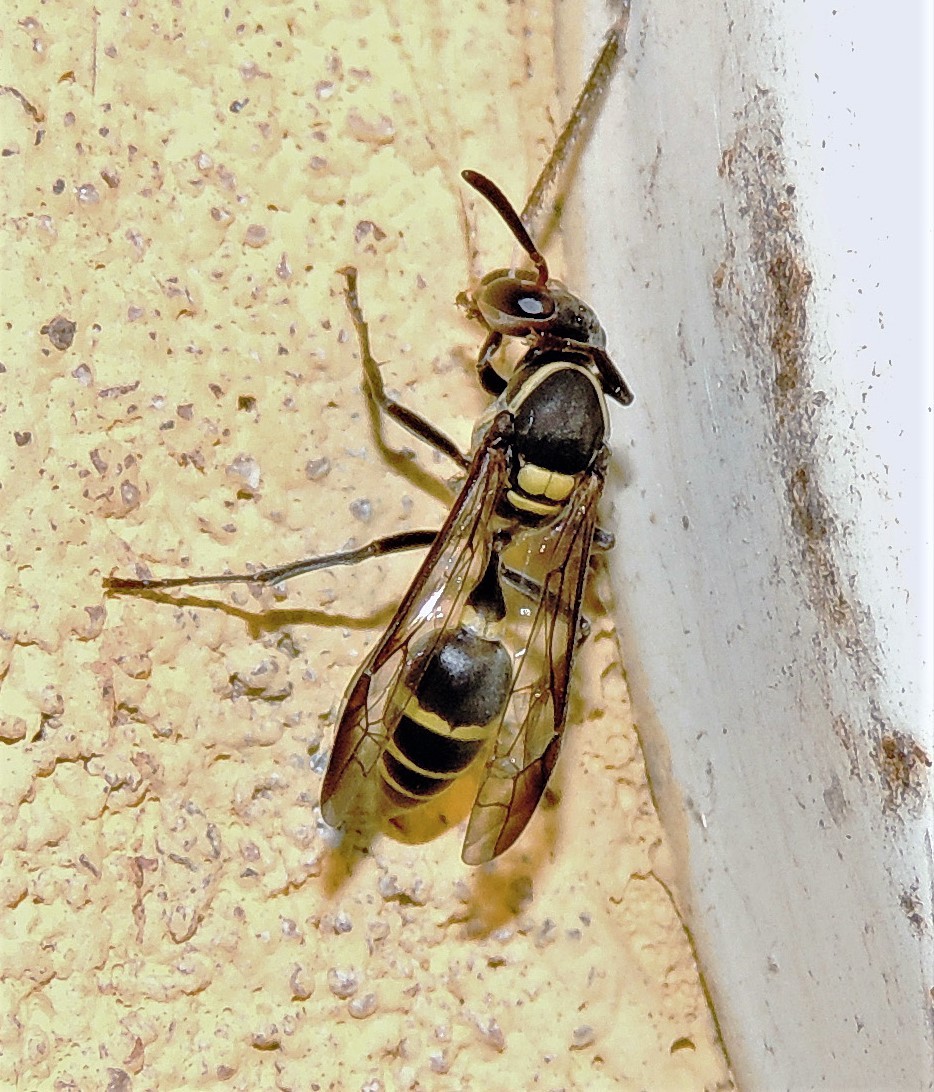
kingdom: Animalia
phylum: Arthropoda
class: Insecta
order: Hymenoptera
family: Eumenidae
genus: Polybia
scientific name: Polybia occidentalis
